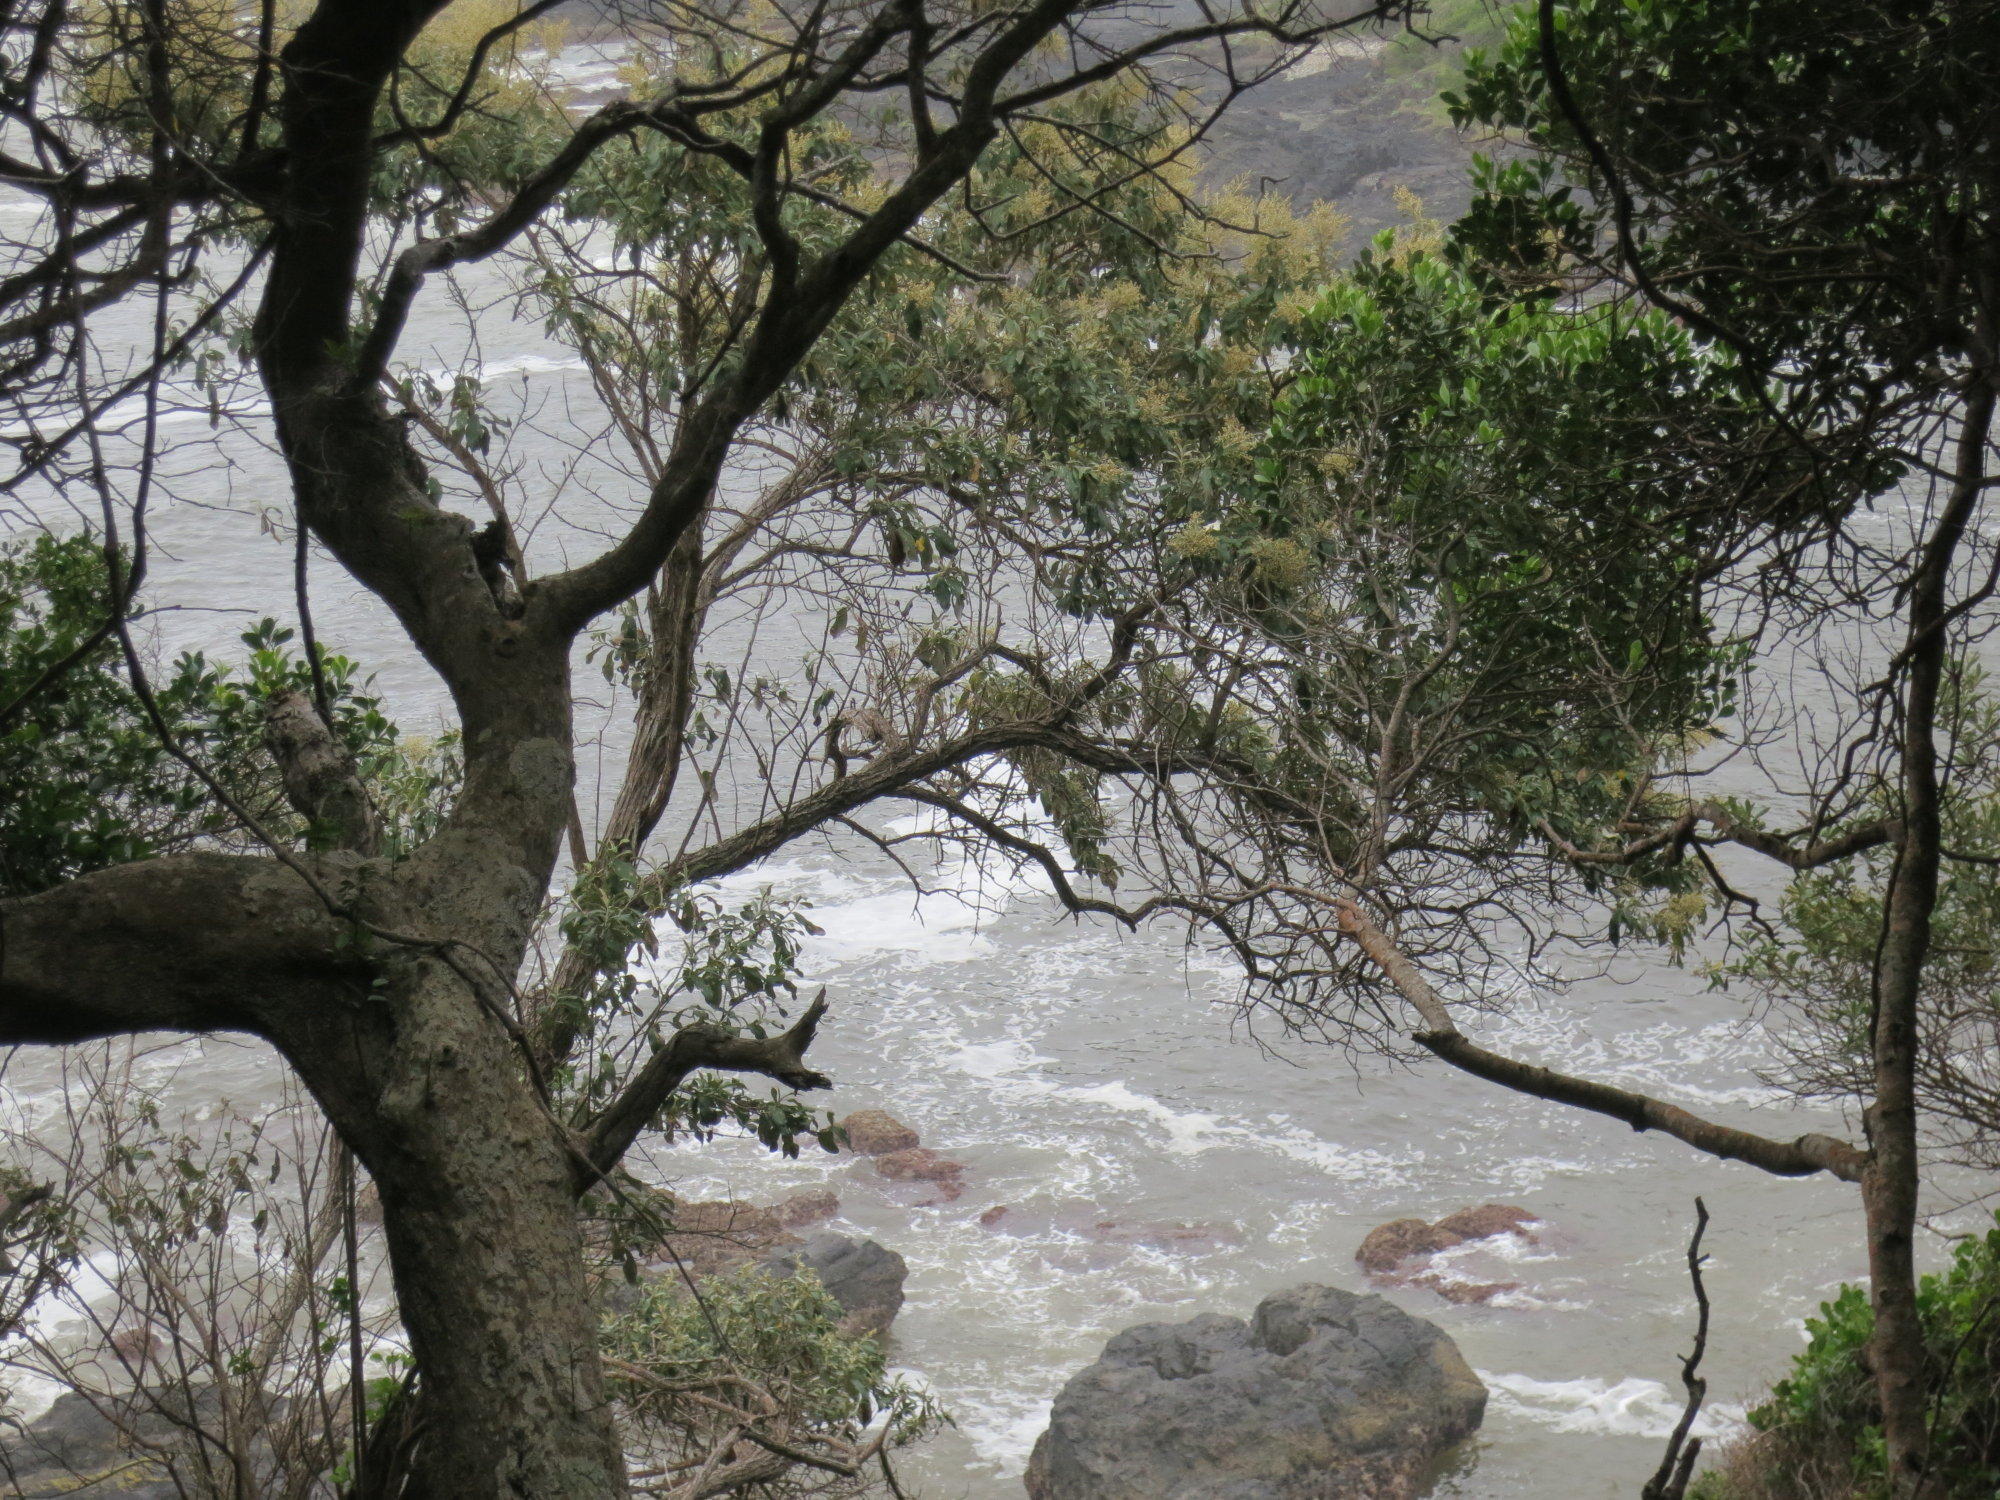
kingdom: Plantae
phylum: Tracheophyta
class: Magnoliopsida
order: Lamiales
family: Stilbaceae
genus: Nuxia
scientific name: Nuxia floribunda
